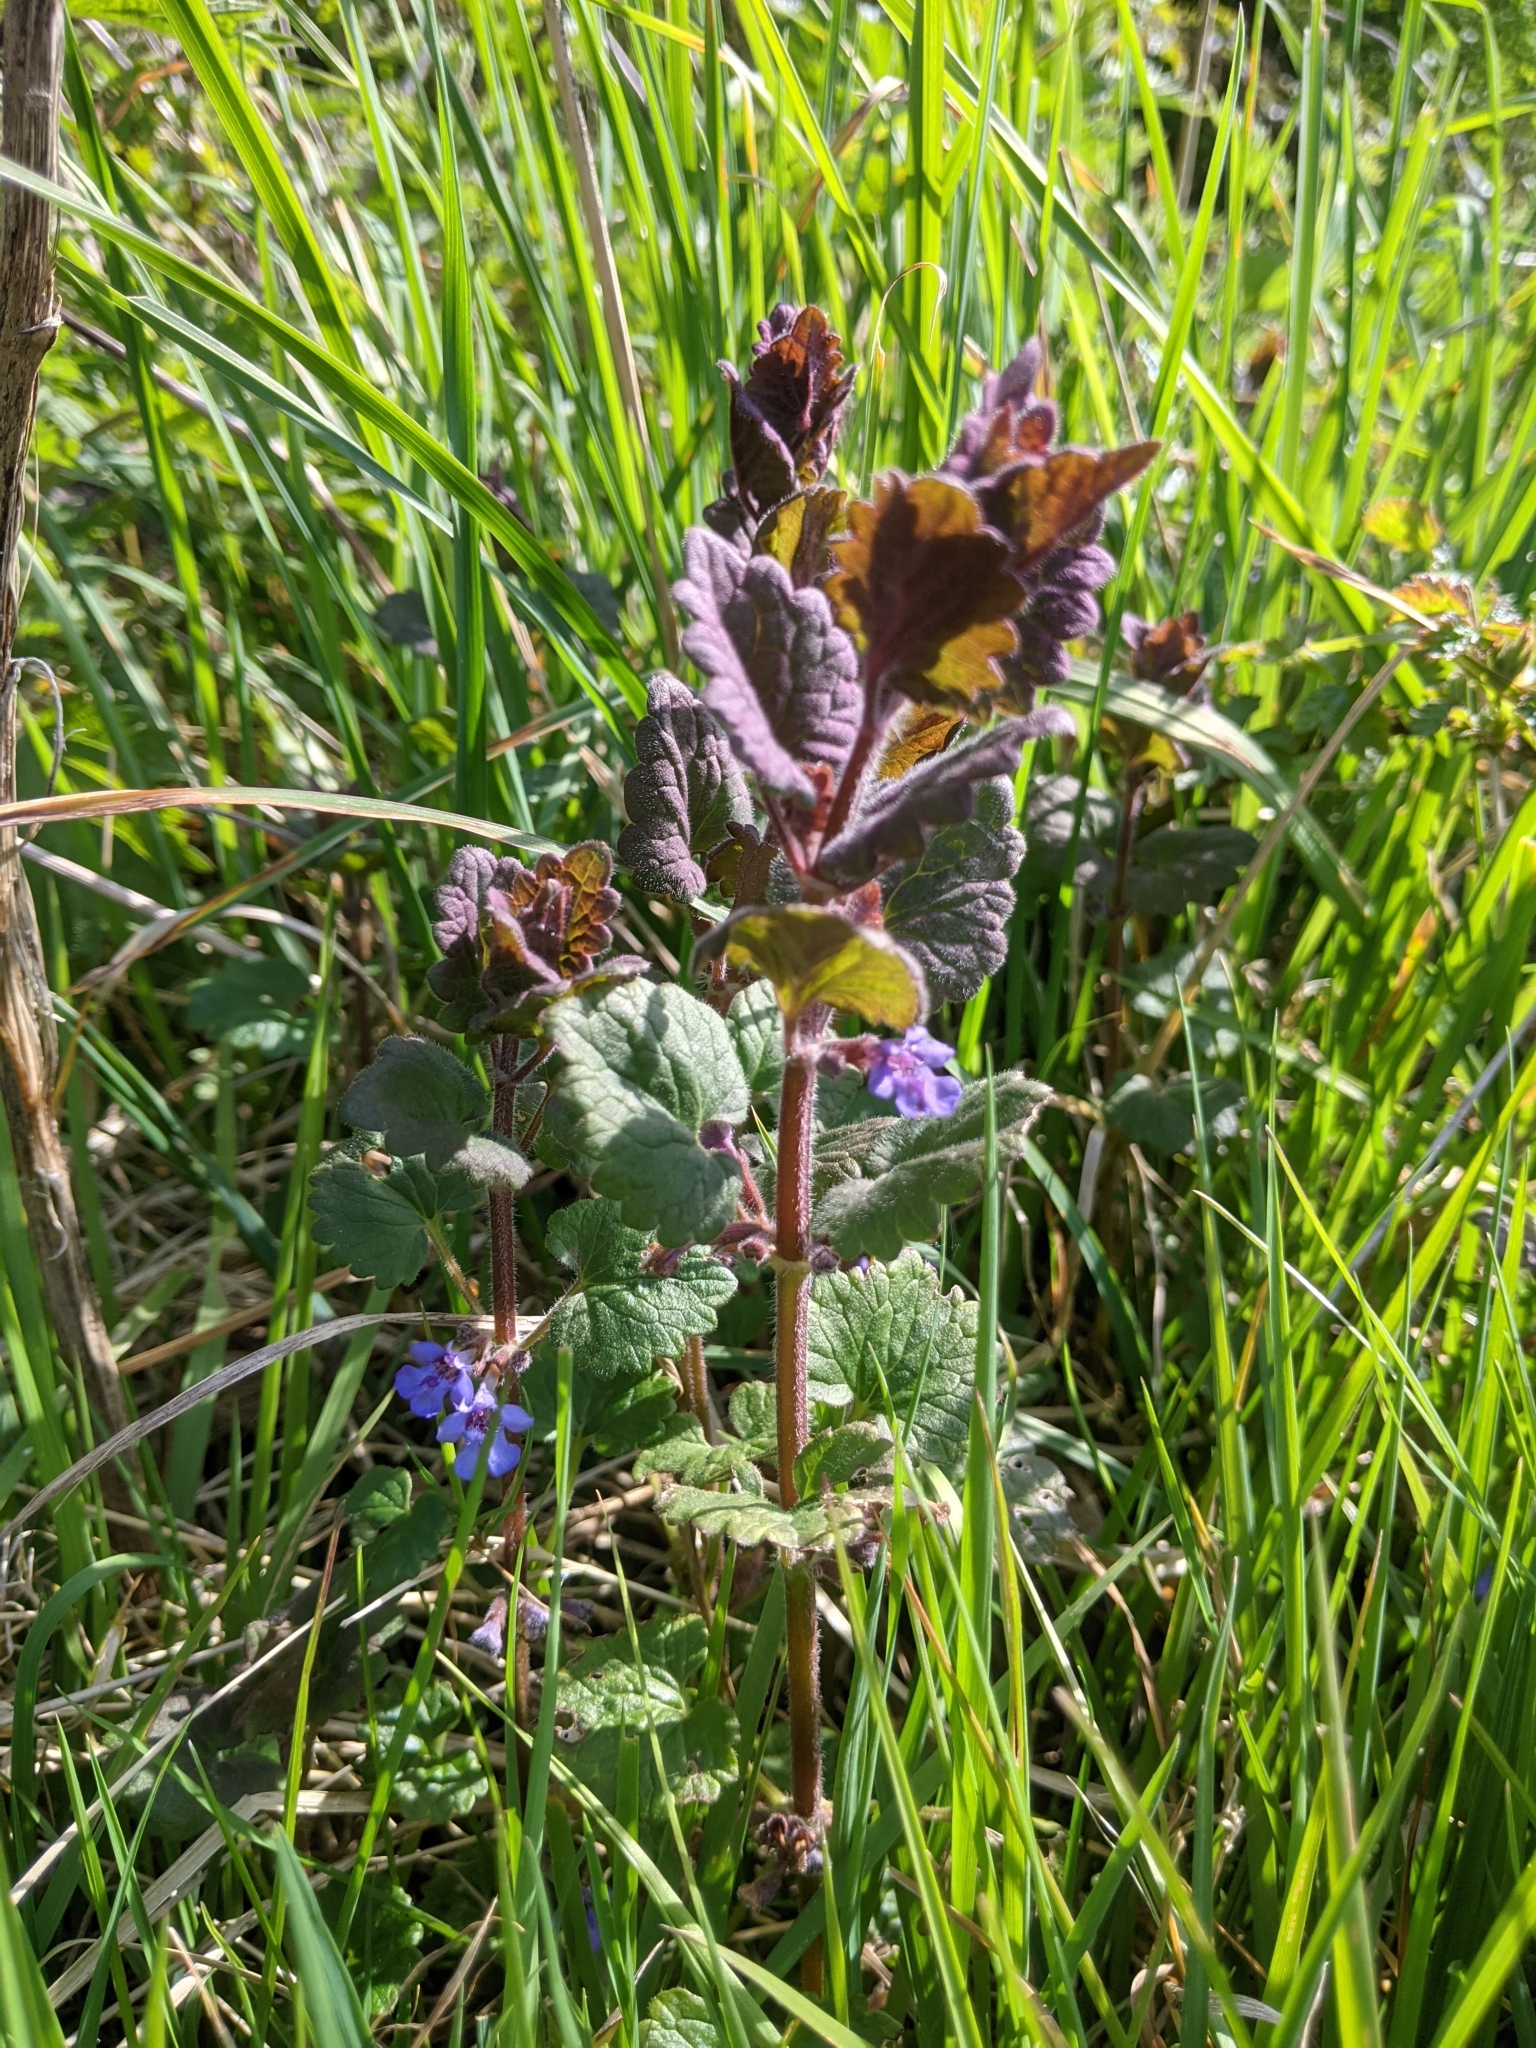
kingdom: Plantae
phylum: Tracheophyta
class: Magnoliopsida
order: Lamiales
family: Lamiaceae
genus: Glechoma
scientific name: Glechoma hederacea
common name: Ground ivy
